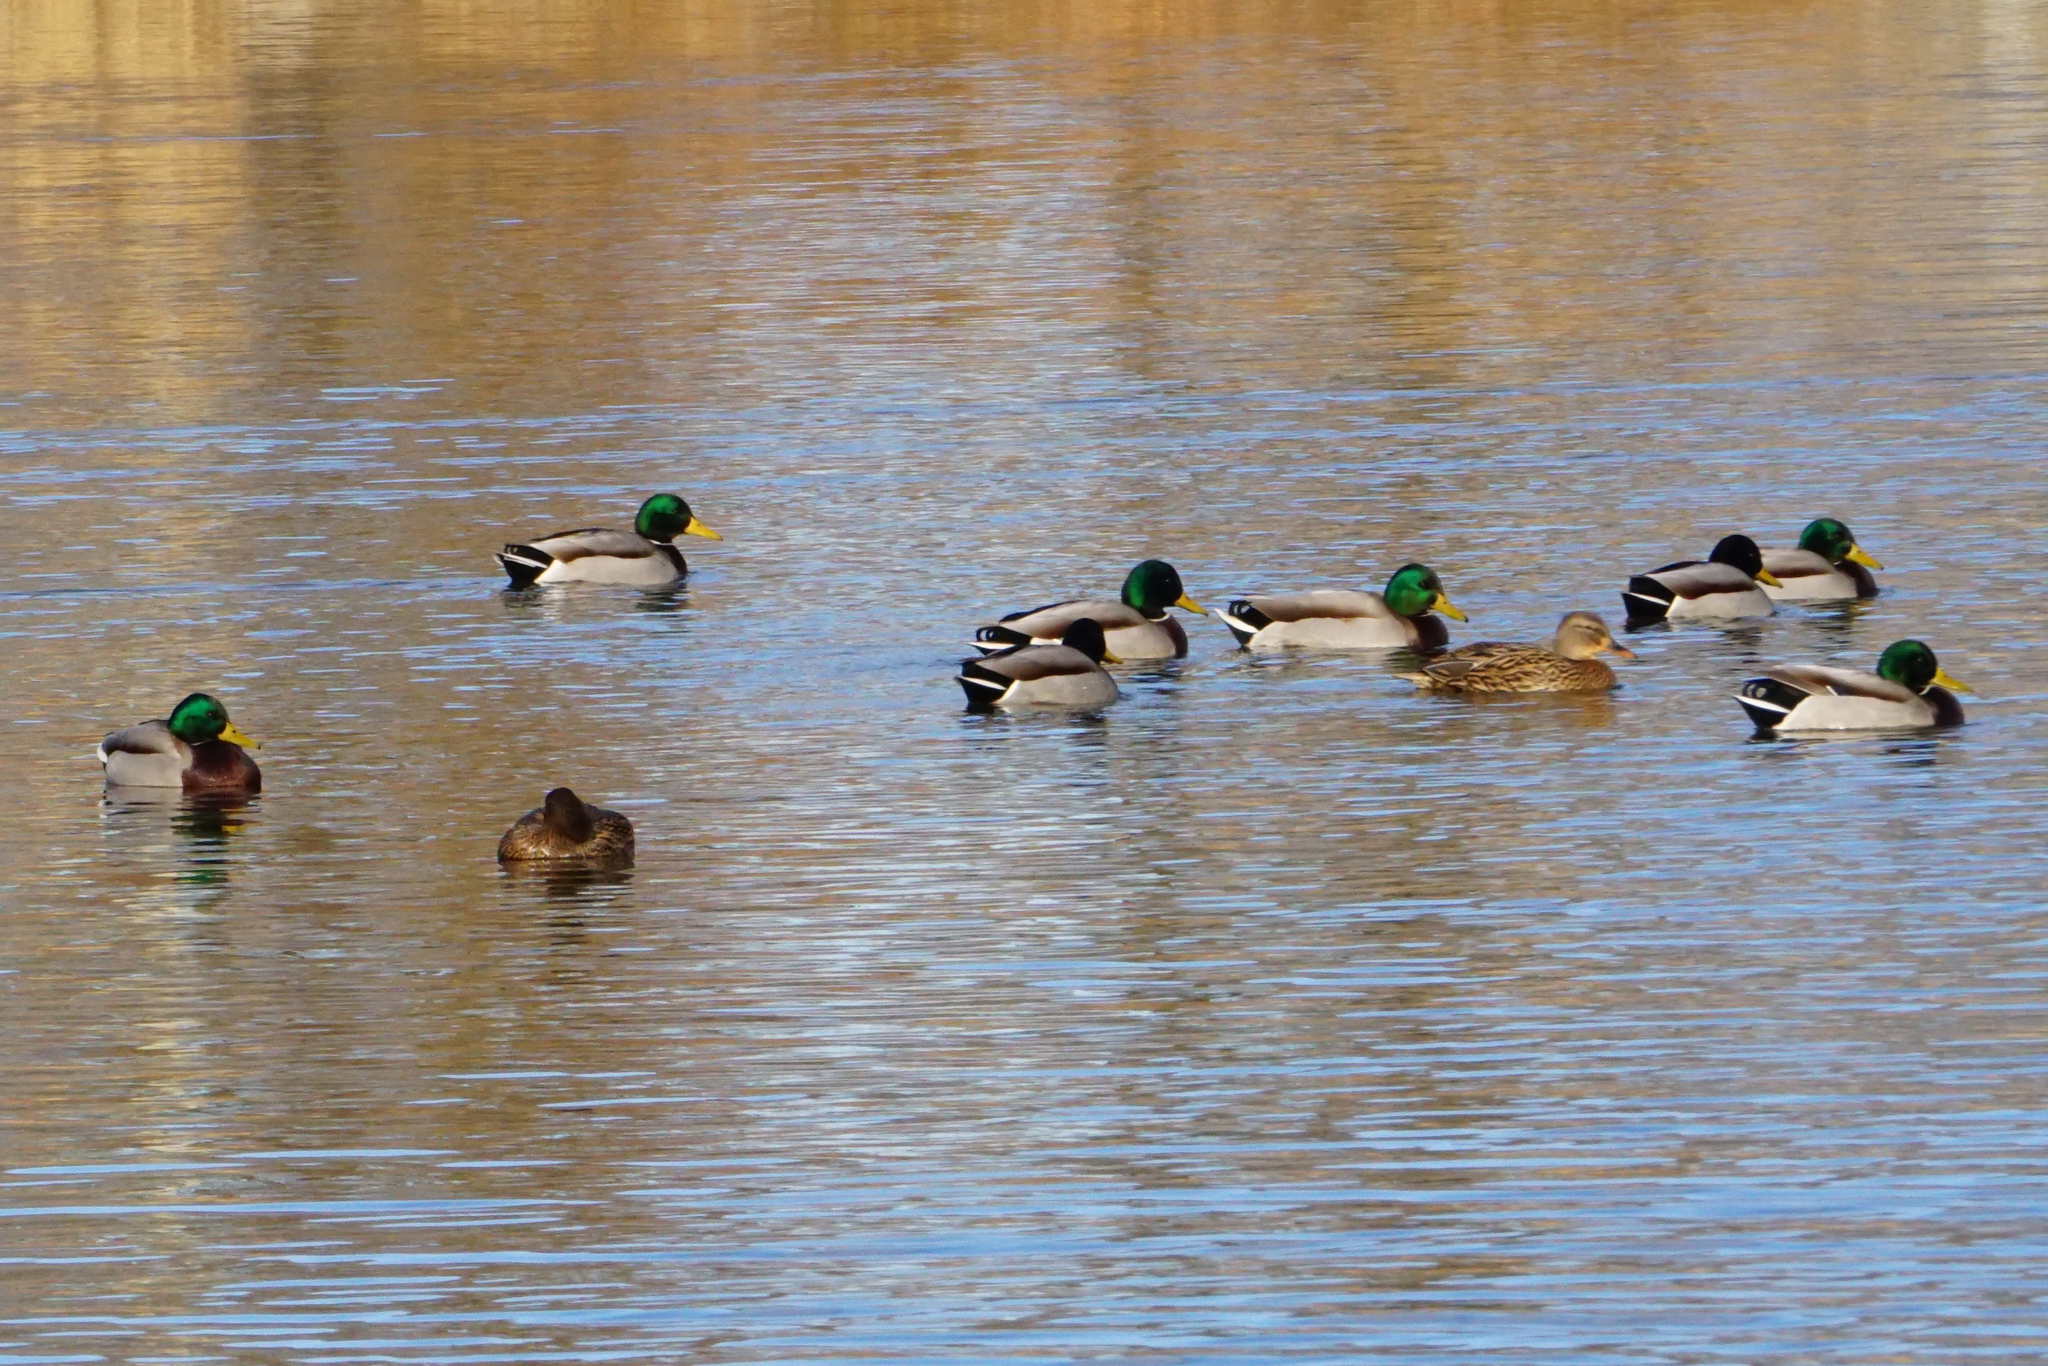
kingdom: Animalia
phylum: Chordata
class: Aves
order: Anseriformes
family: Anatidae
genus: Anas
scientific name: Anas platyrhynchos
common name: Mallard
